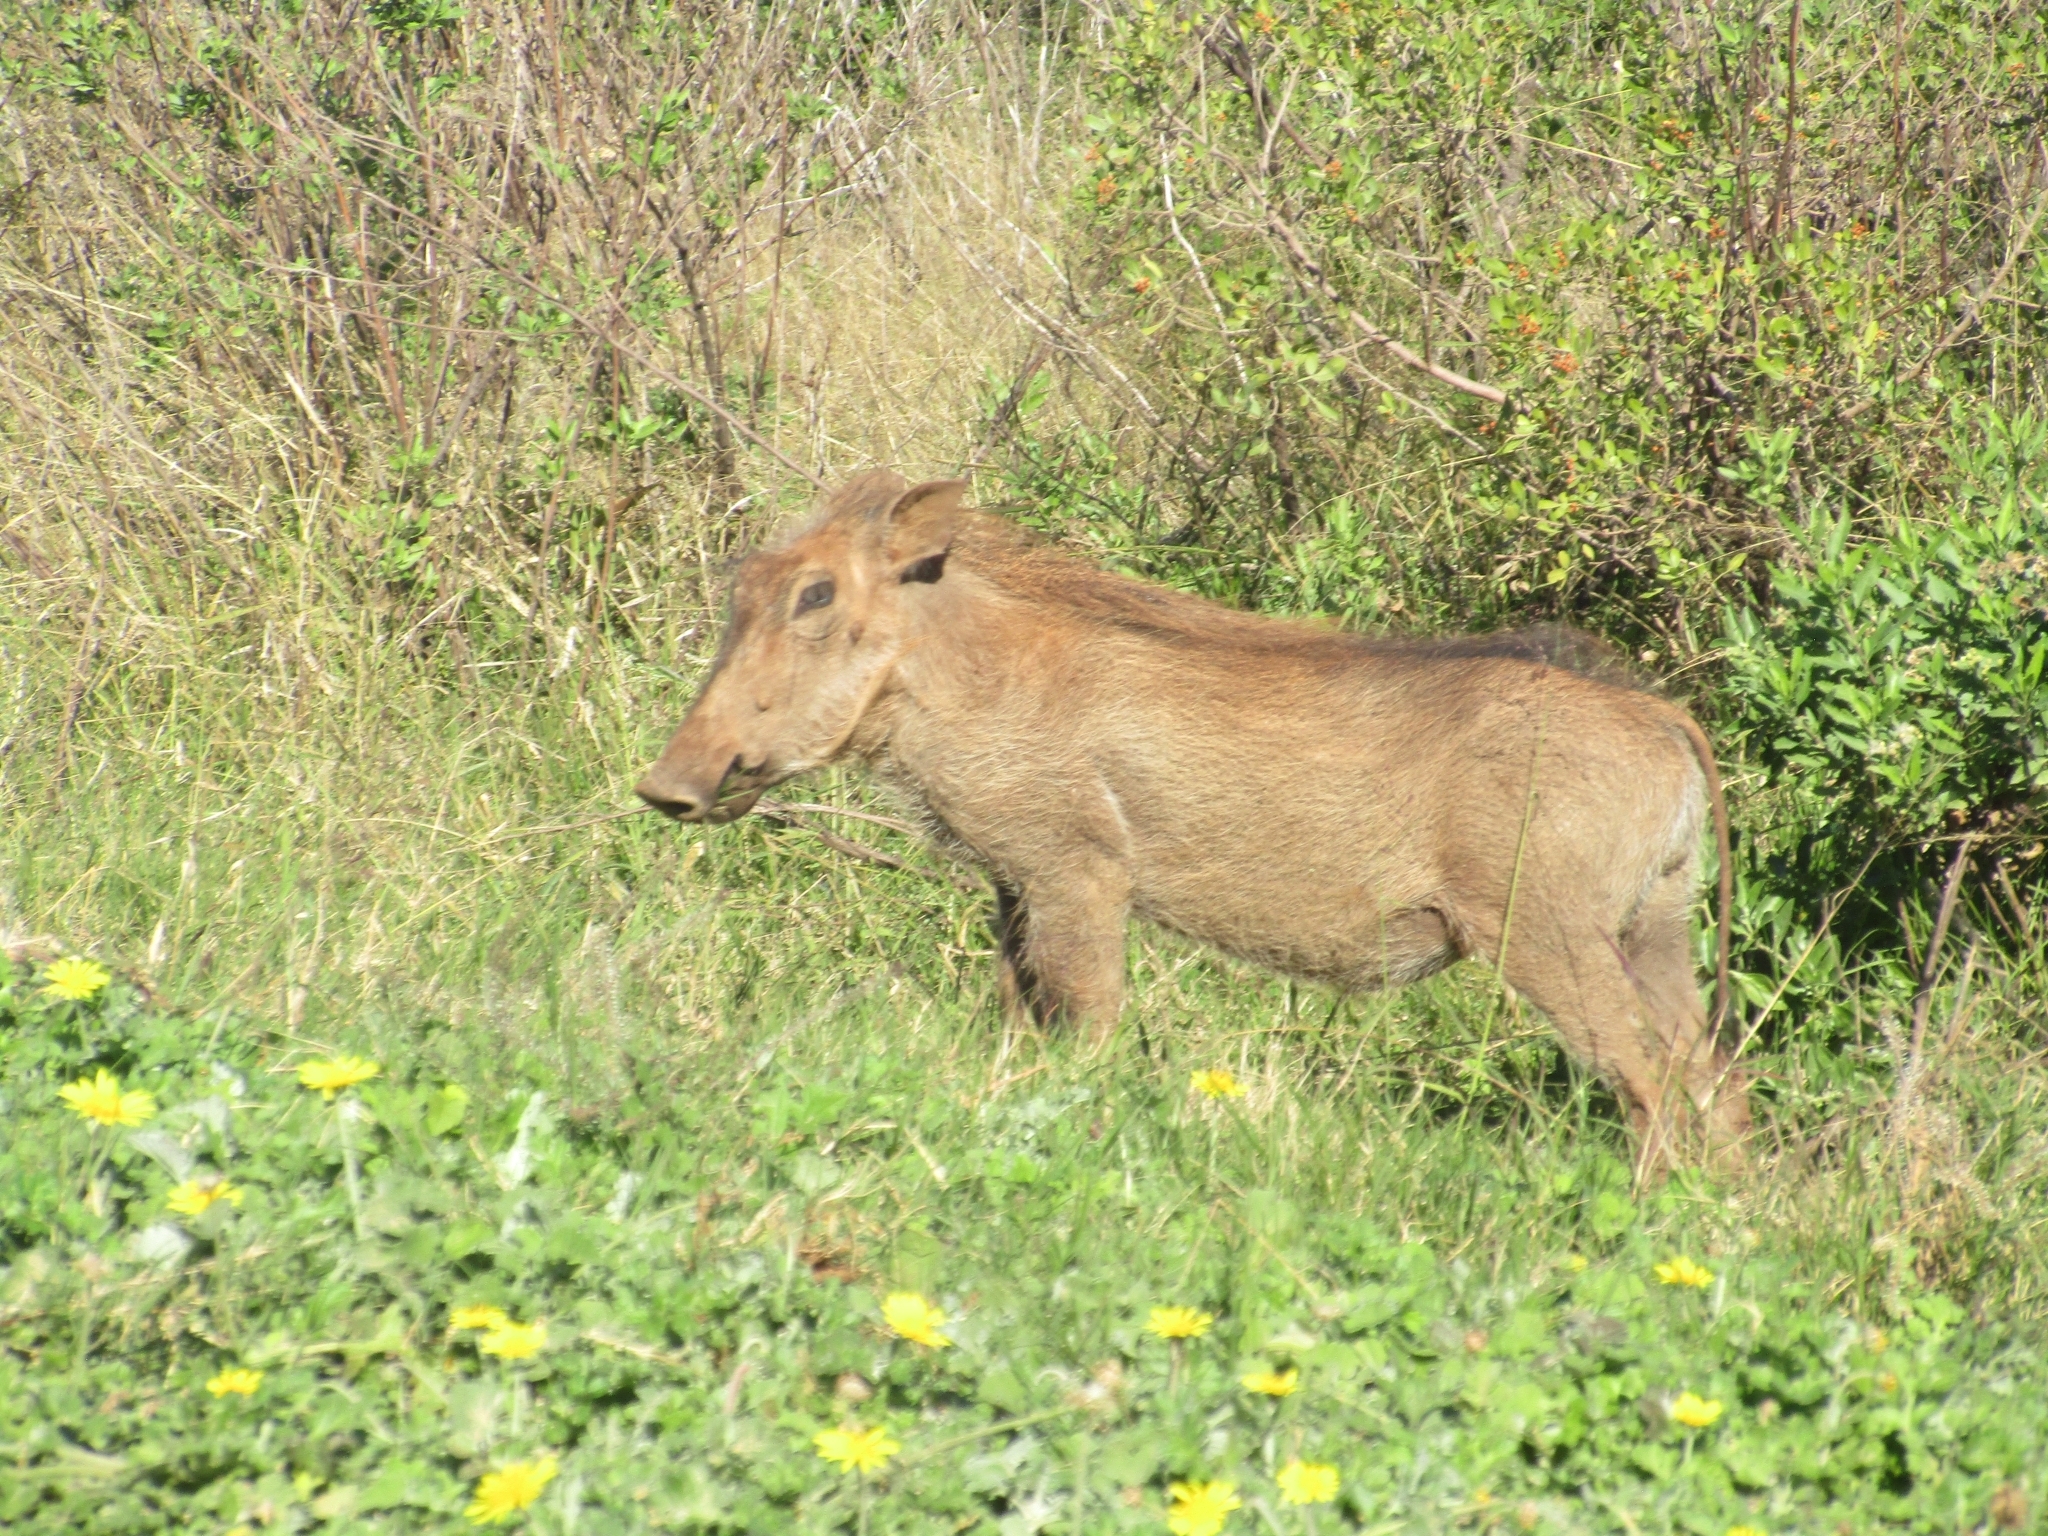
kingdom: Animalia
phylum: Chordata
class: Mammalia
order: Artiodactyla
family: Suidae
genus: Phacochoerus
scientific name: Phacochoerus africanus
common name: Common warthog
